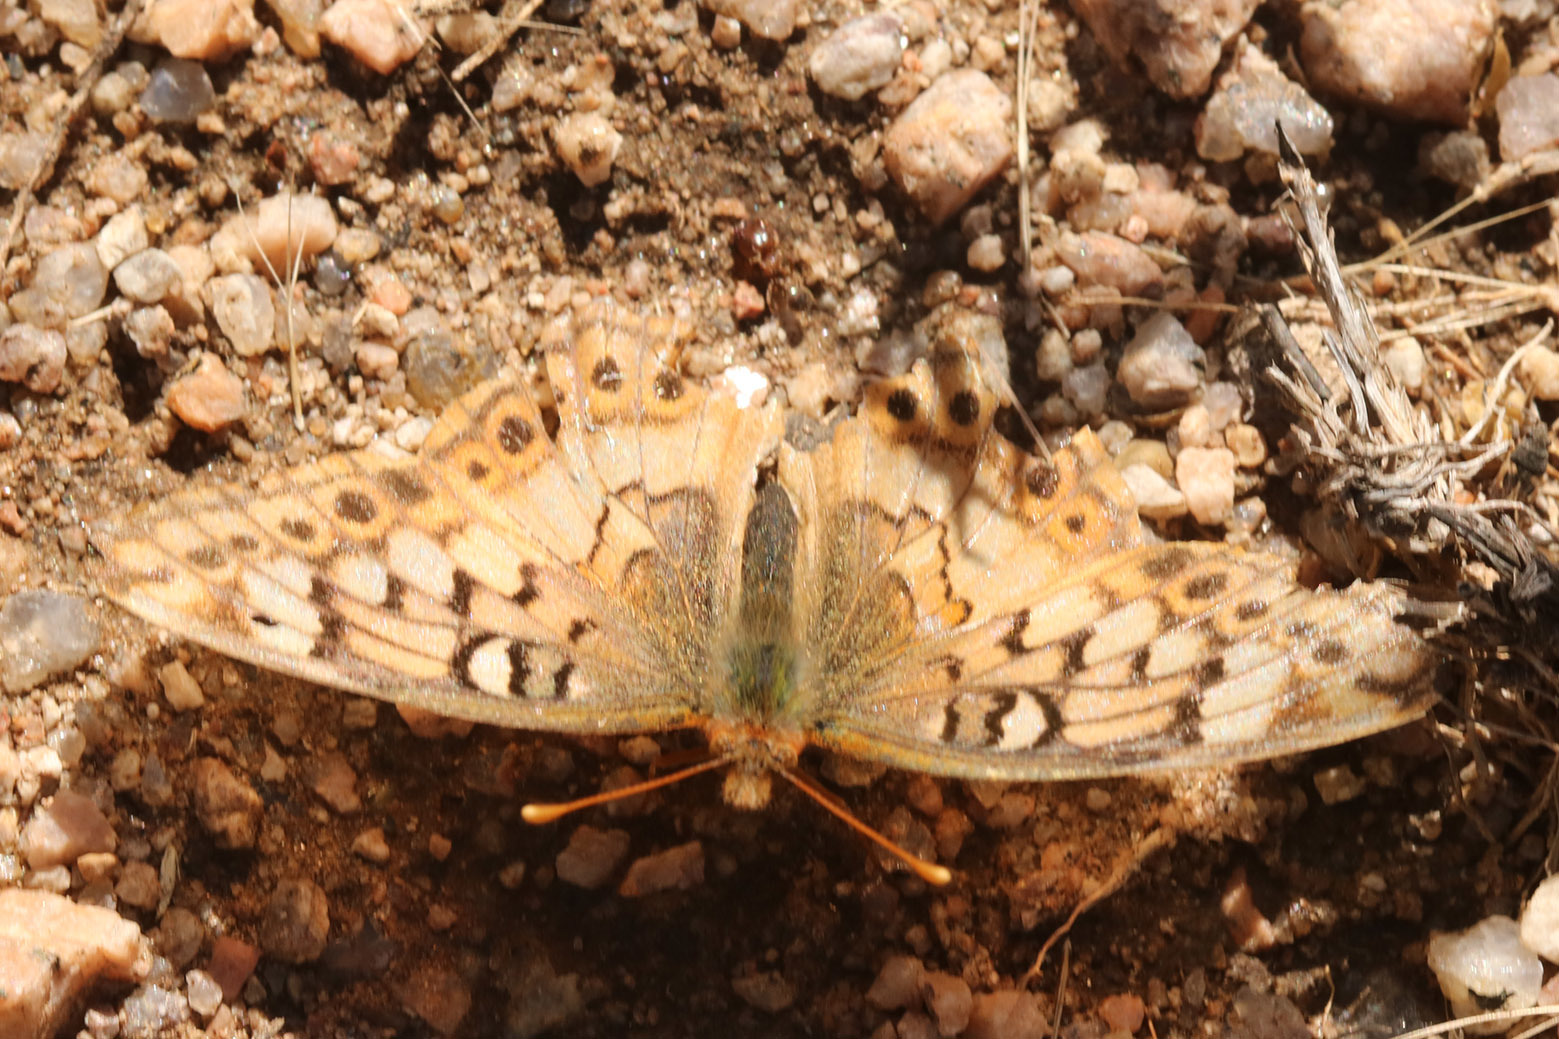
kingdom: Animalia
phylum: Arthropoda
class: Insecta
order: Lepidoptera
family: Nymphalidae
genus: Euptoieta
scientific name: Euptoieta hortensia
